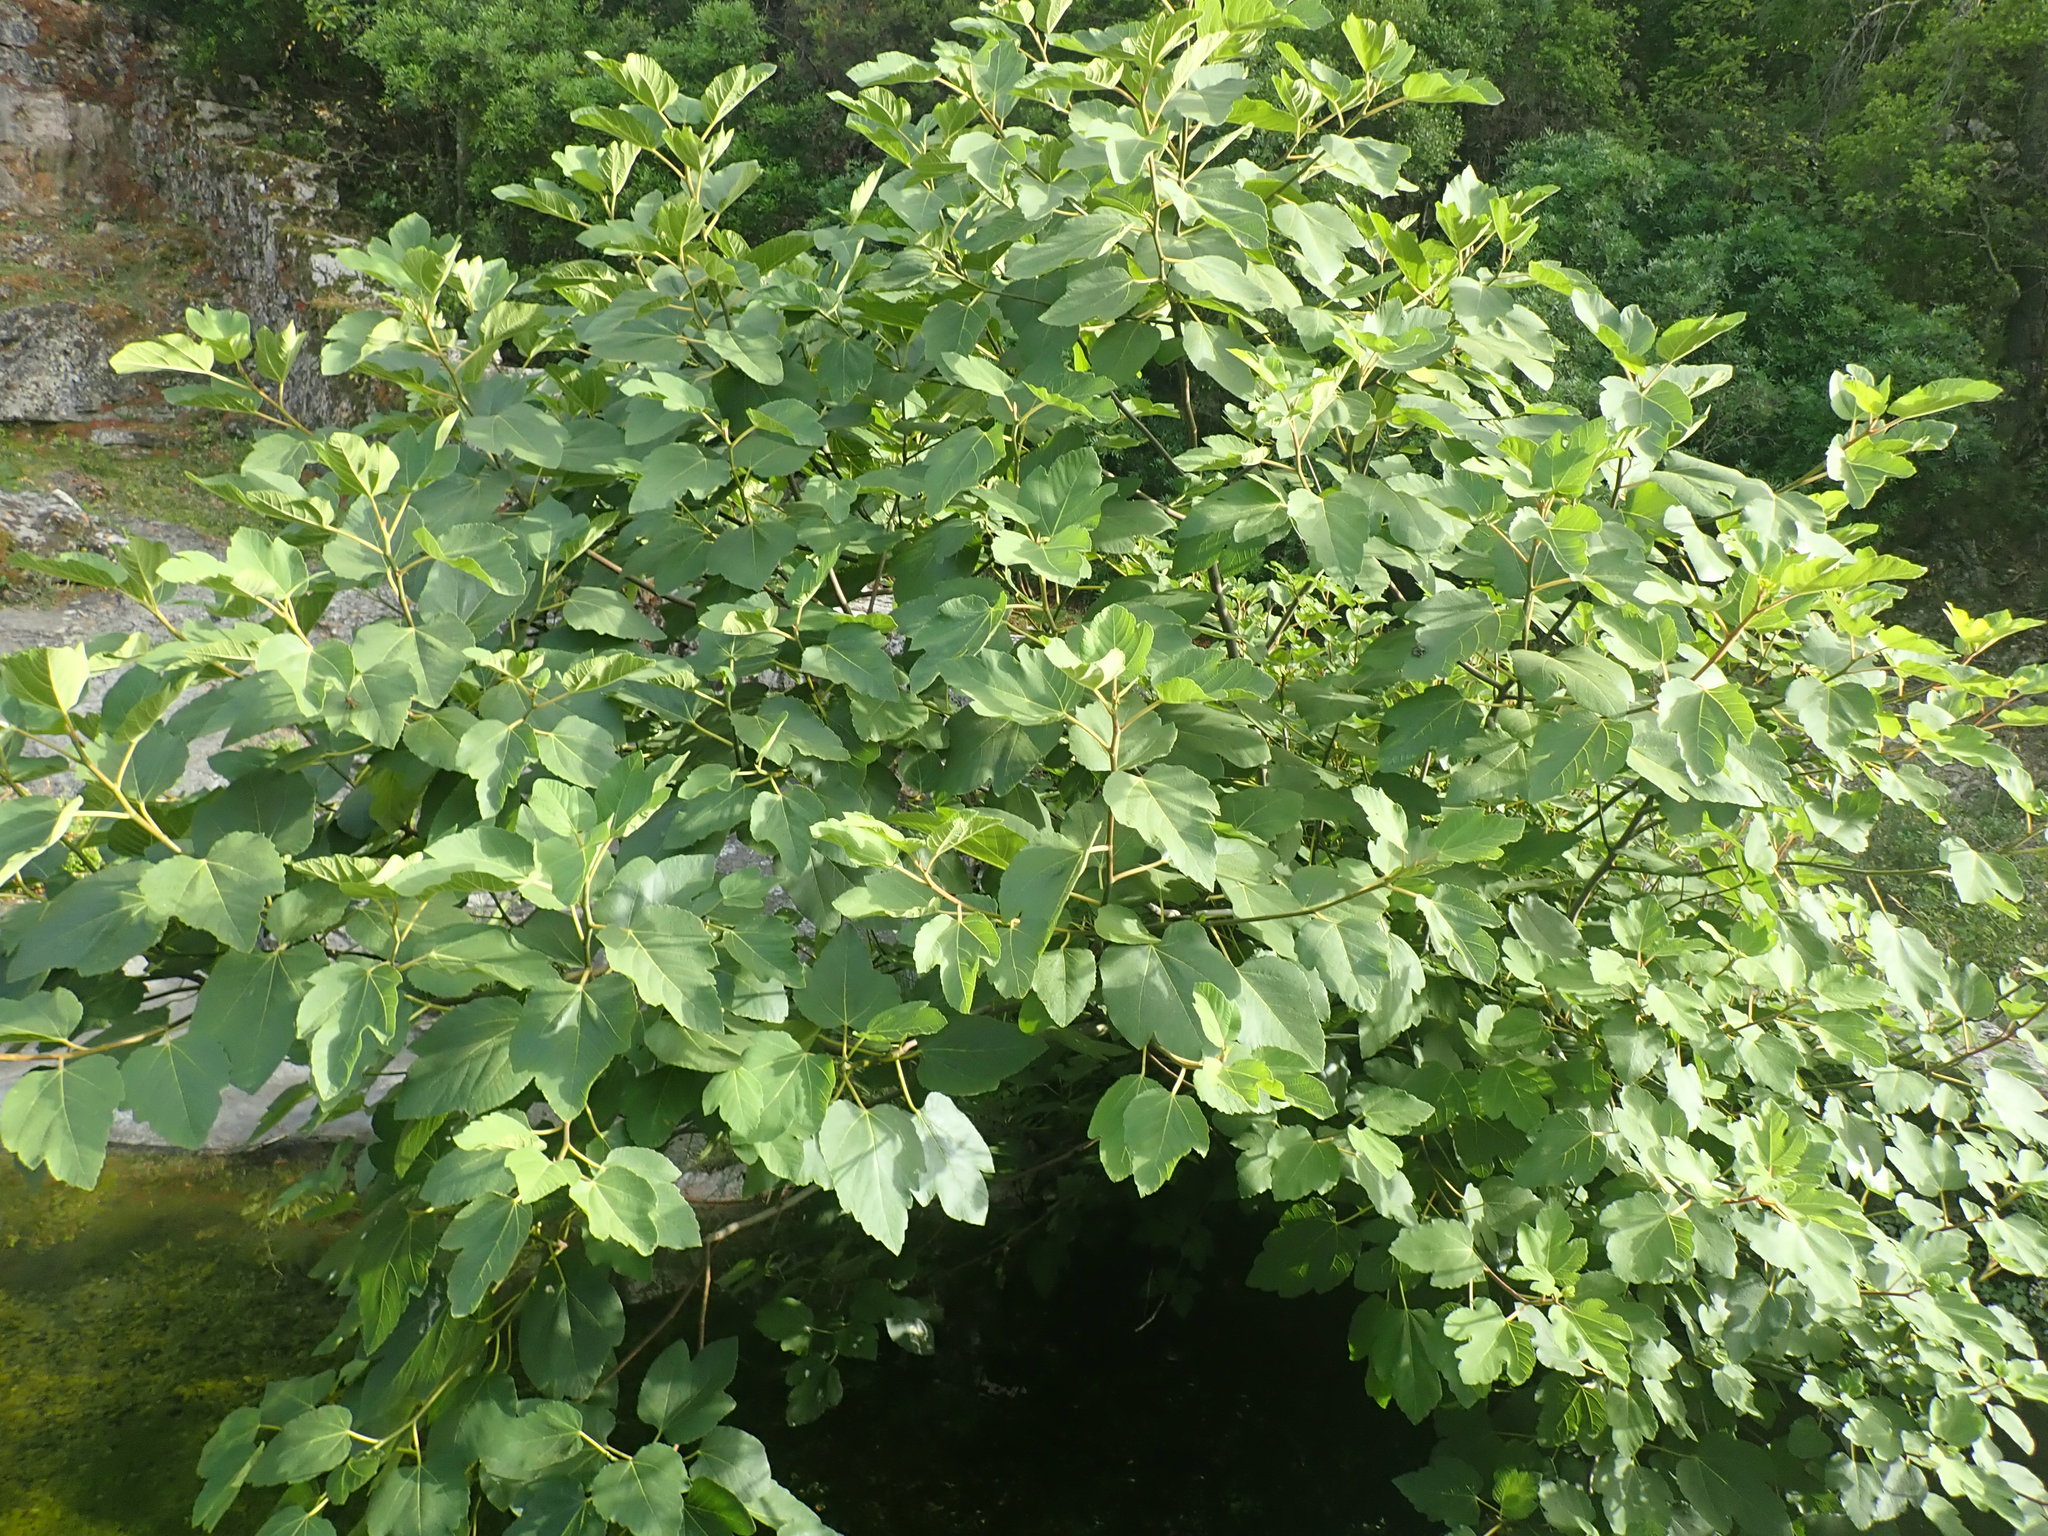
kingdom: Plantae
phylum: Tracheophyta
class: Magnoliopsida
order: Rosales
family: Moraceae
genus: Ficus
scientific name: Ficus carica
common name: Fig
